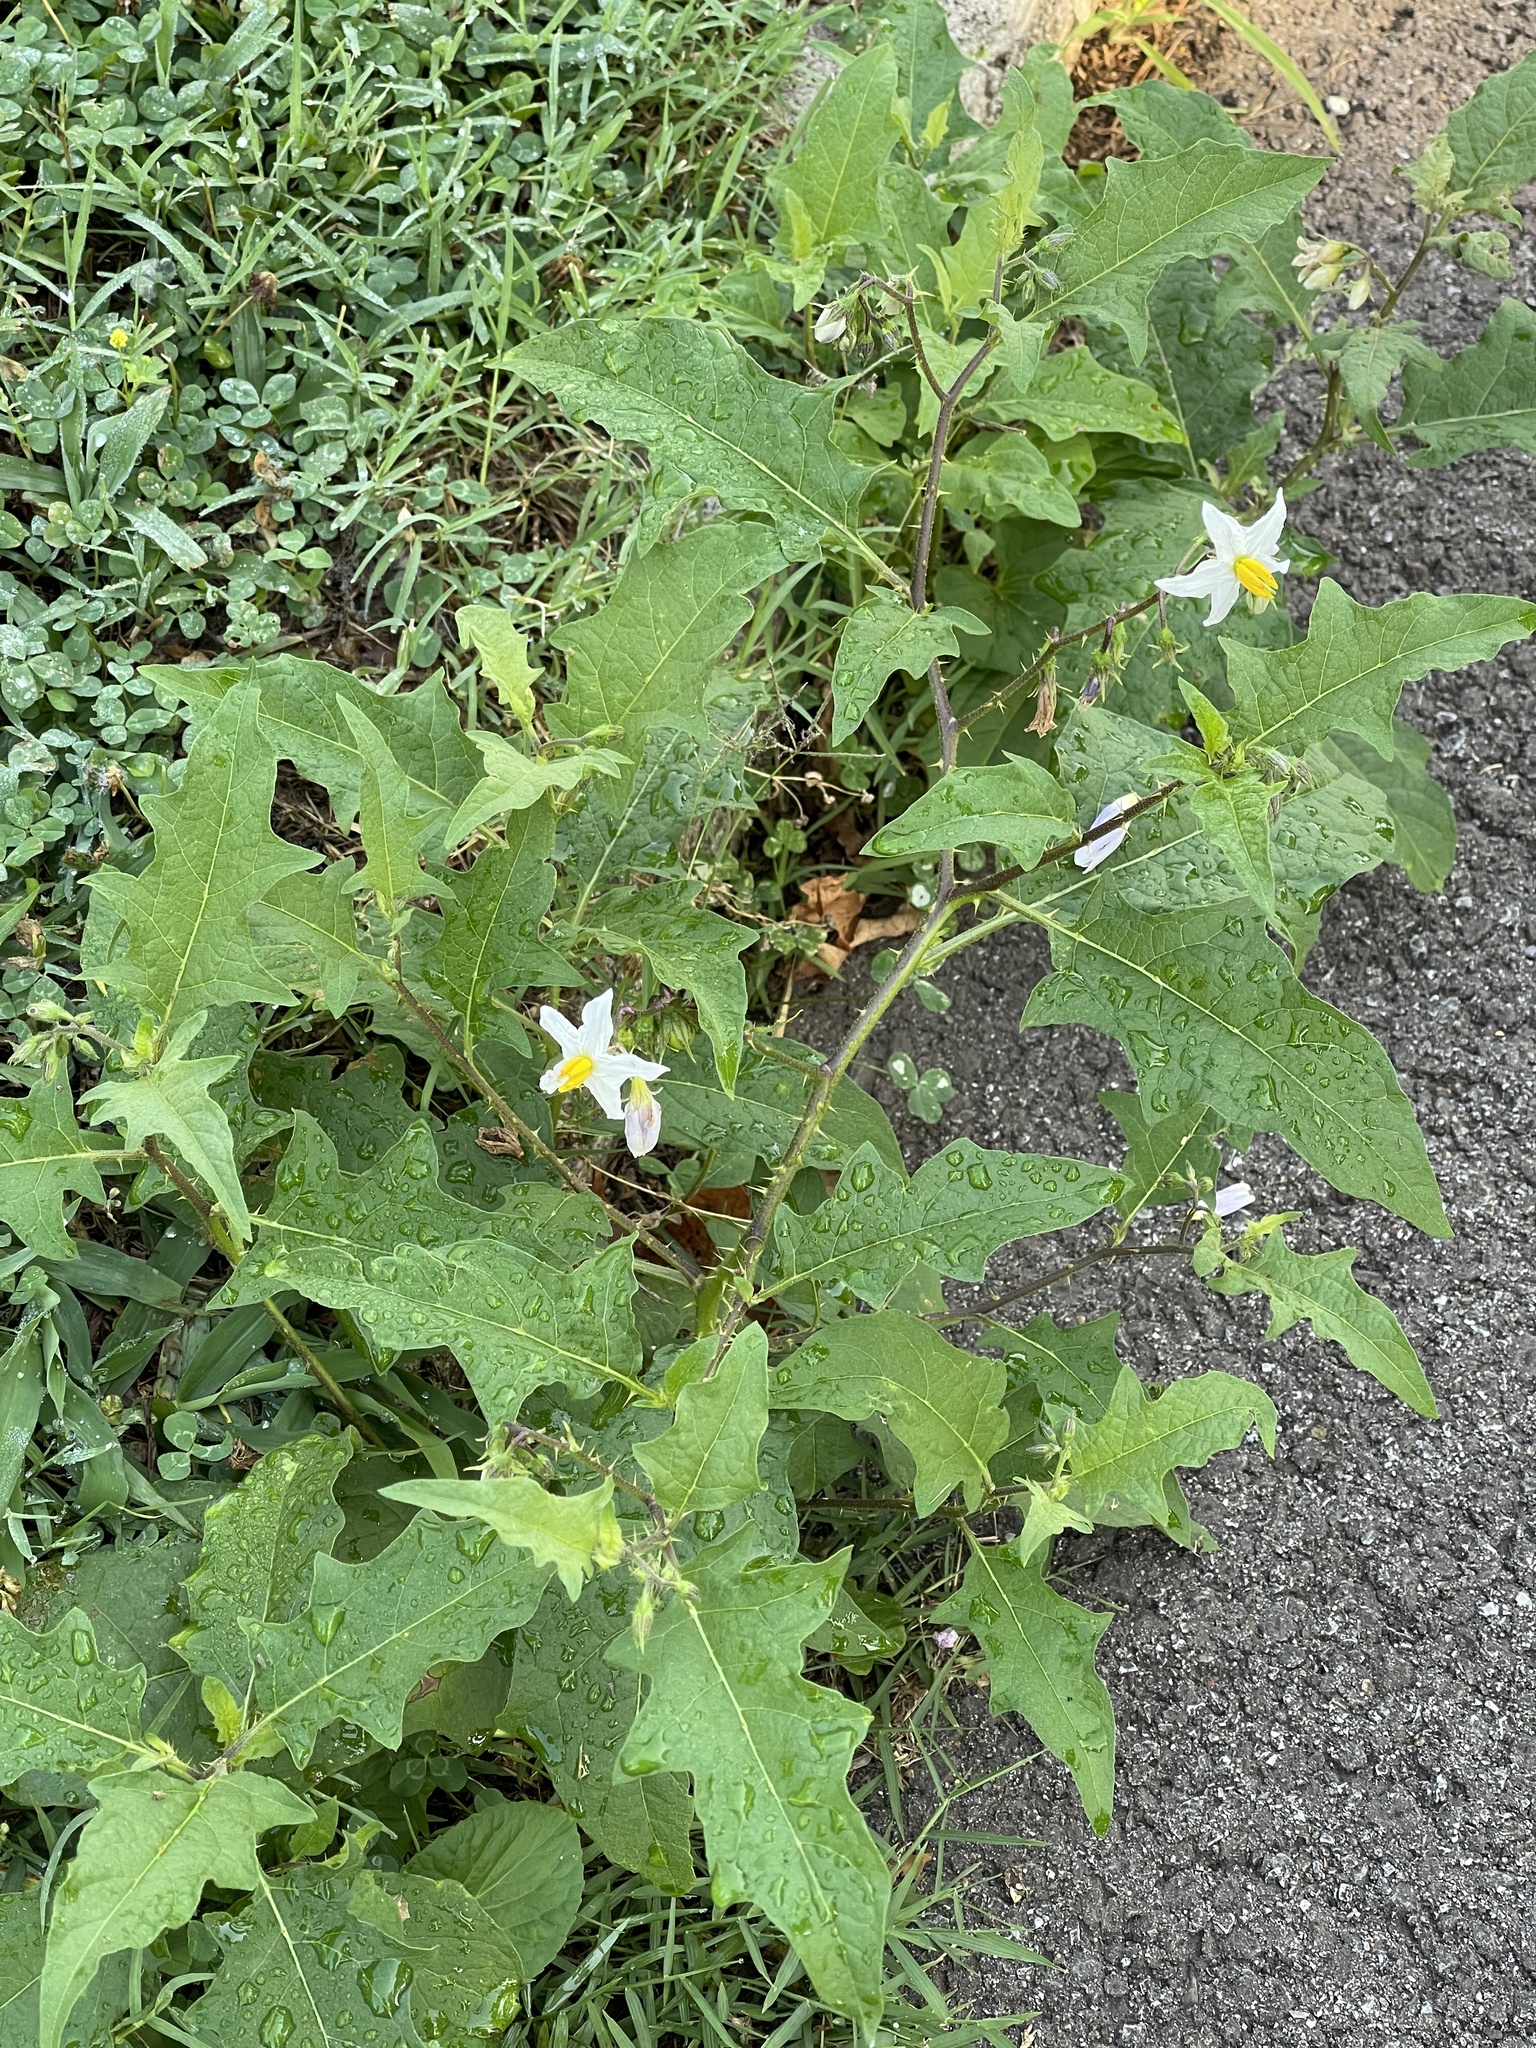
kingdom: Plantae
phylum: Tracheophyta
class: Magnoliopsida
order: Solanales
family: Solanaceae
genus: Solanum
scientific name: Solanum carolinense
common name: Horse-nettle
